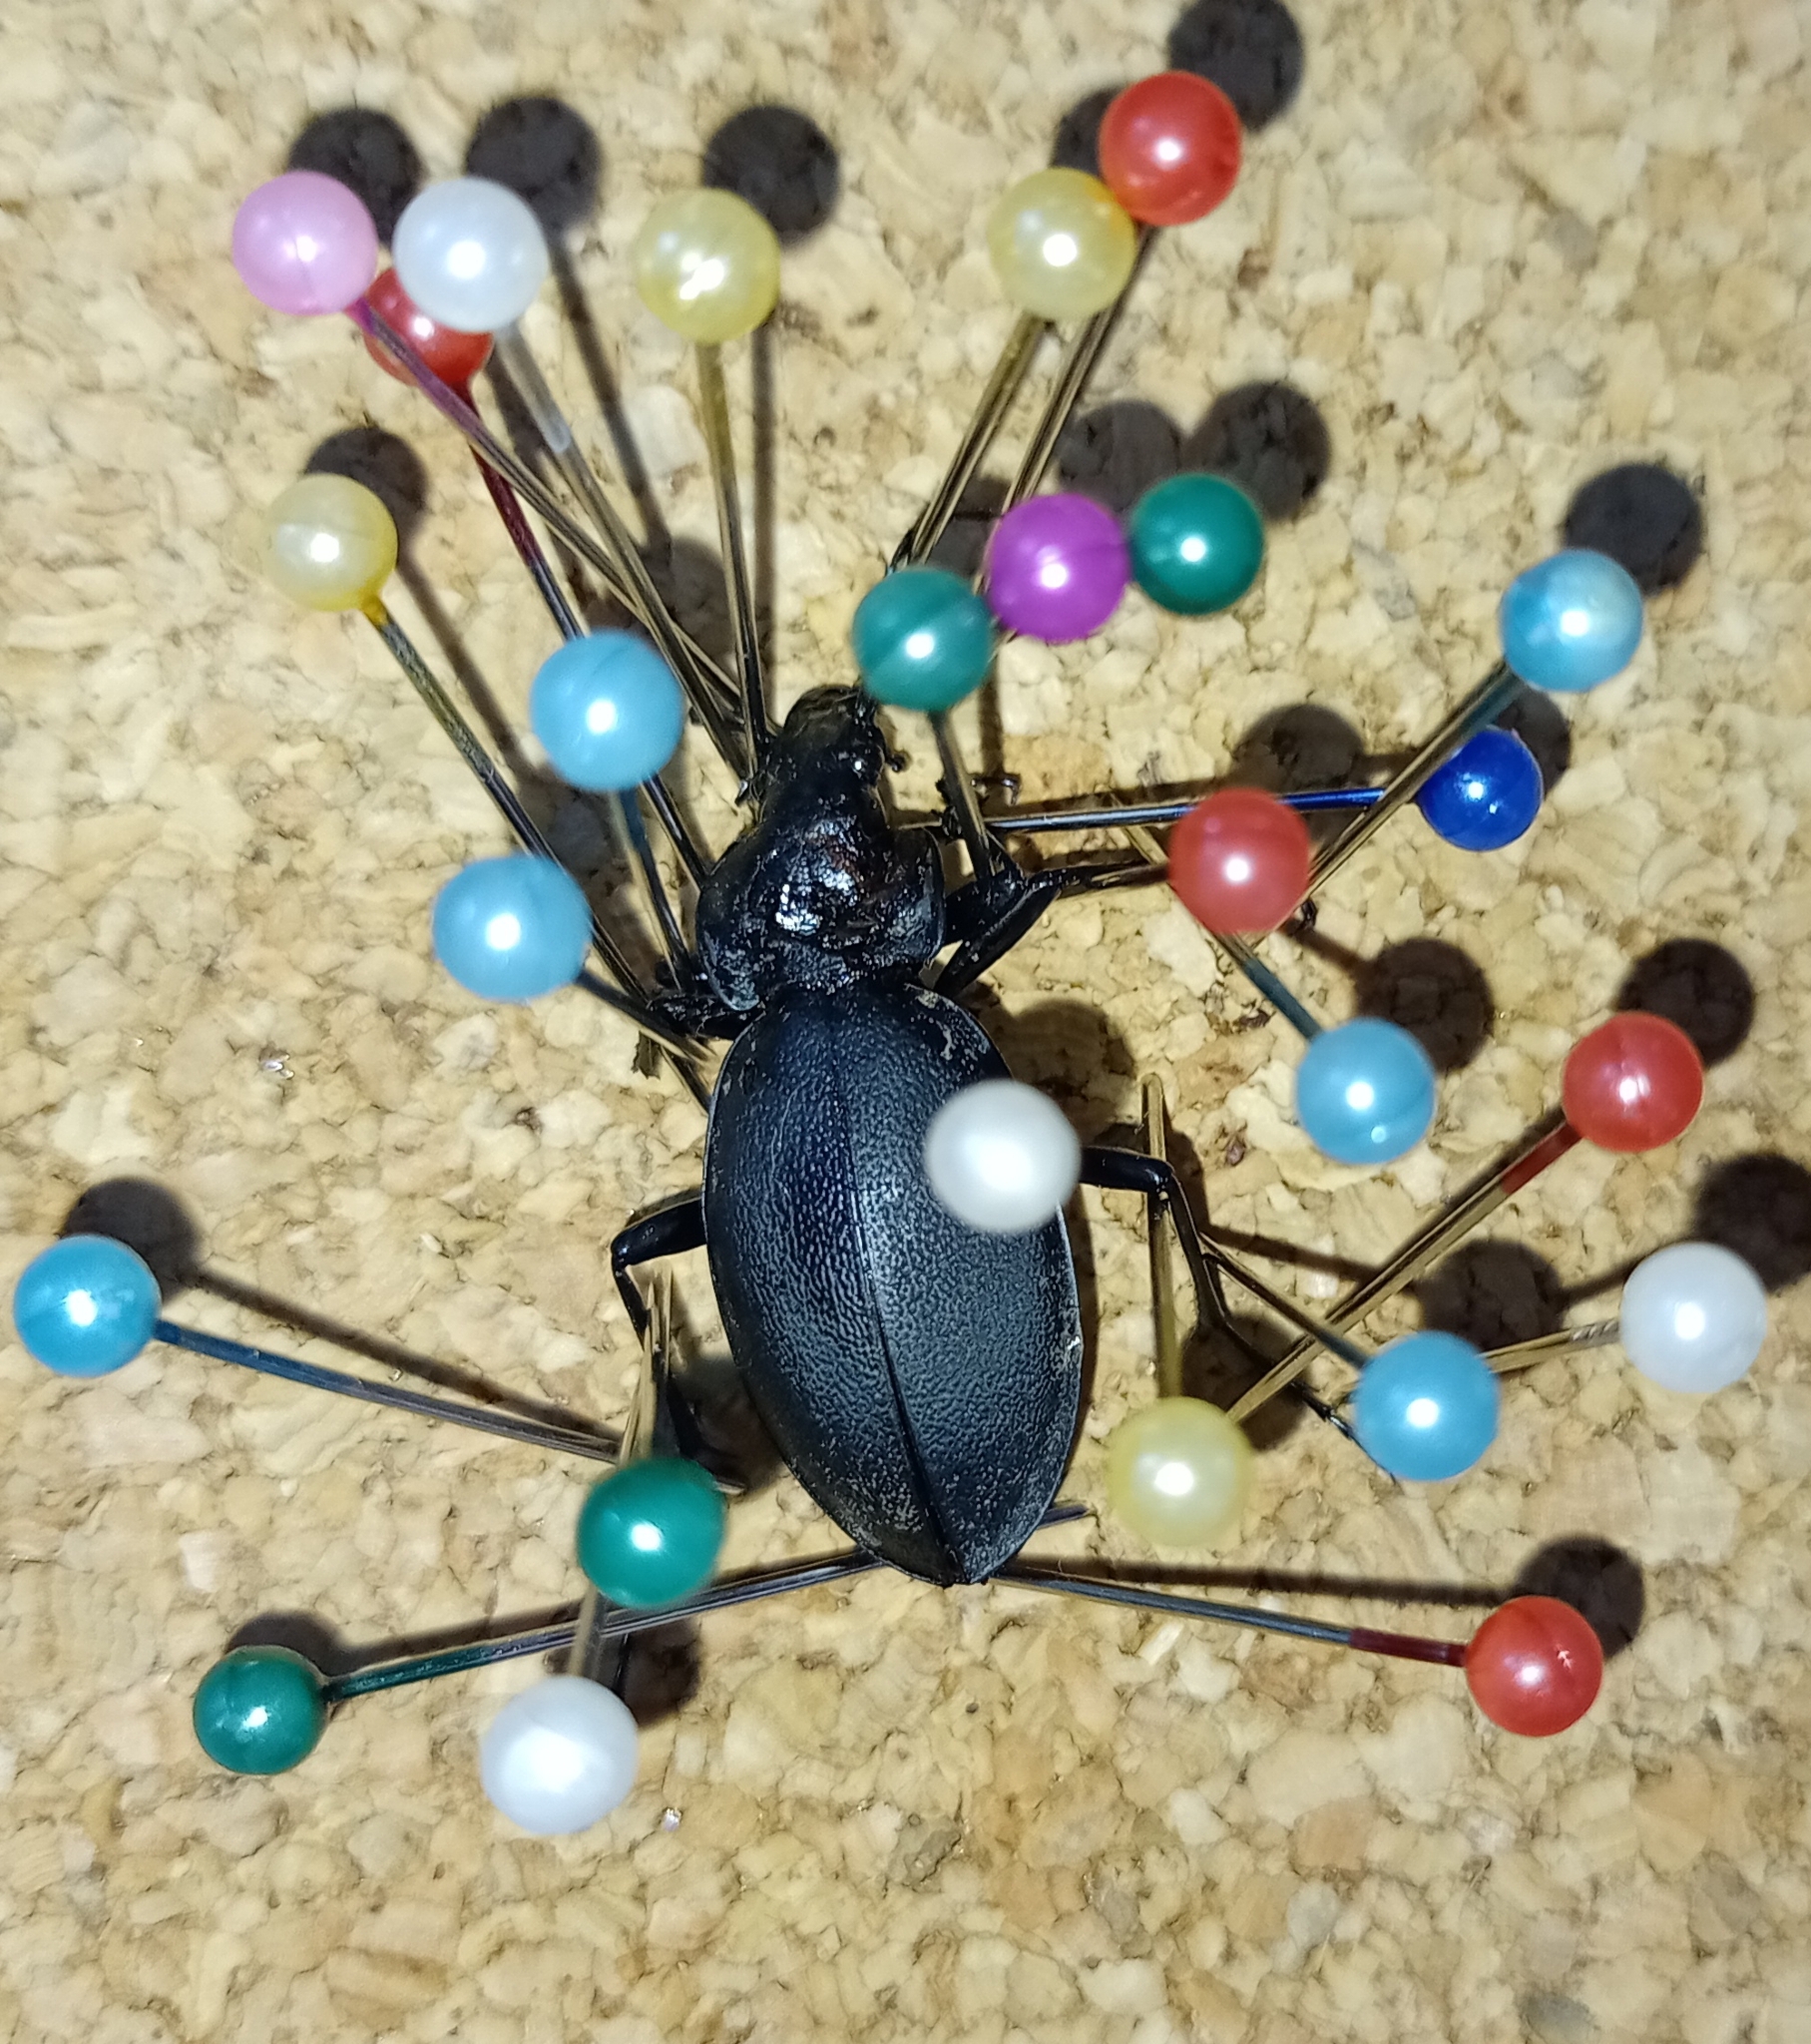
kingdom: Animalia
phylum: Arthropoda
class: Insecta
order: Coleoptera
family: Carabidae
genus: Carabus
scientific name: Carabus coriaceus
